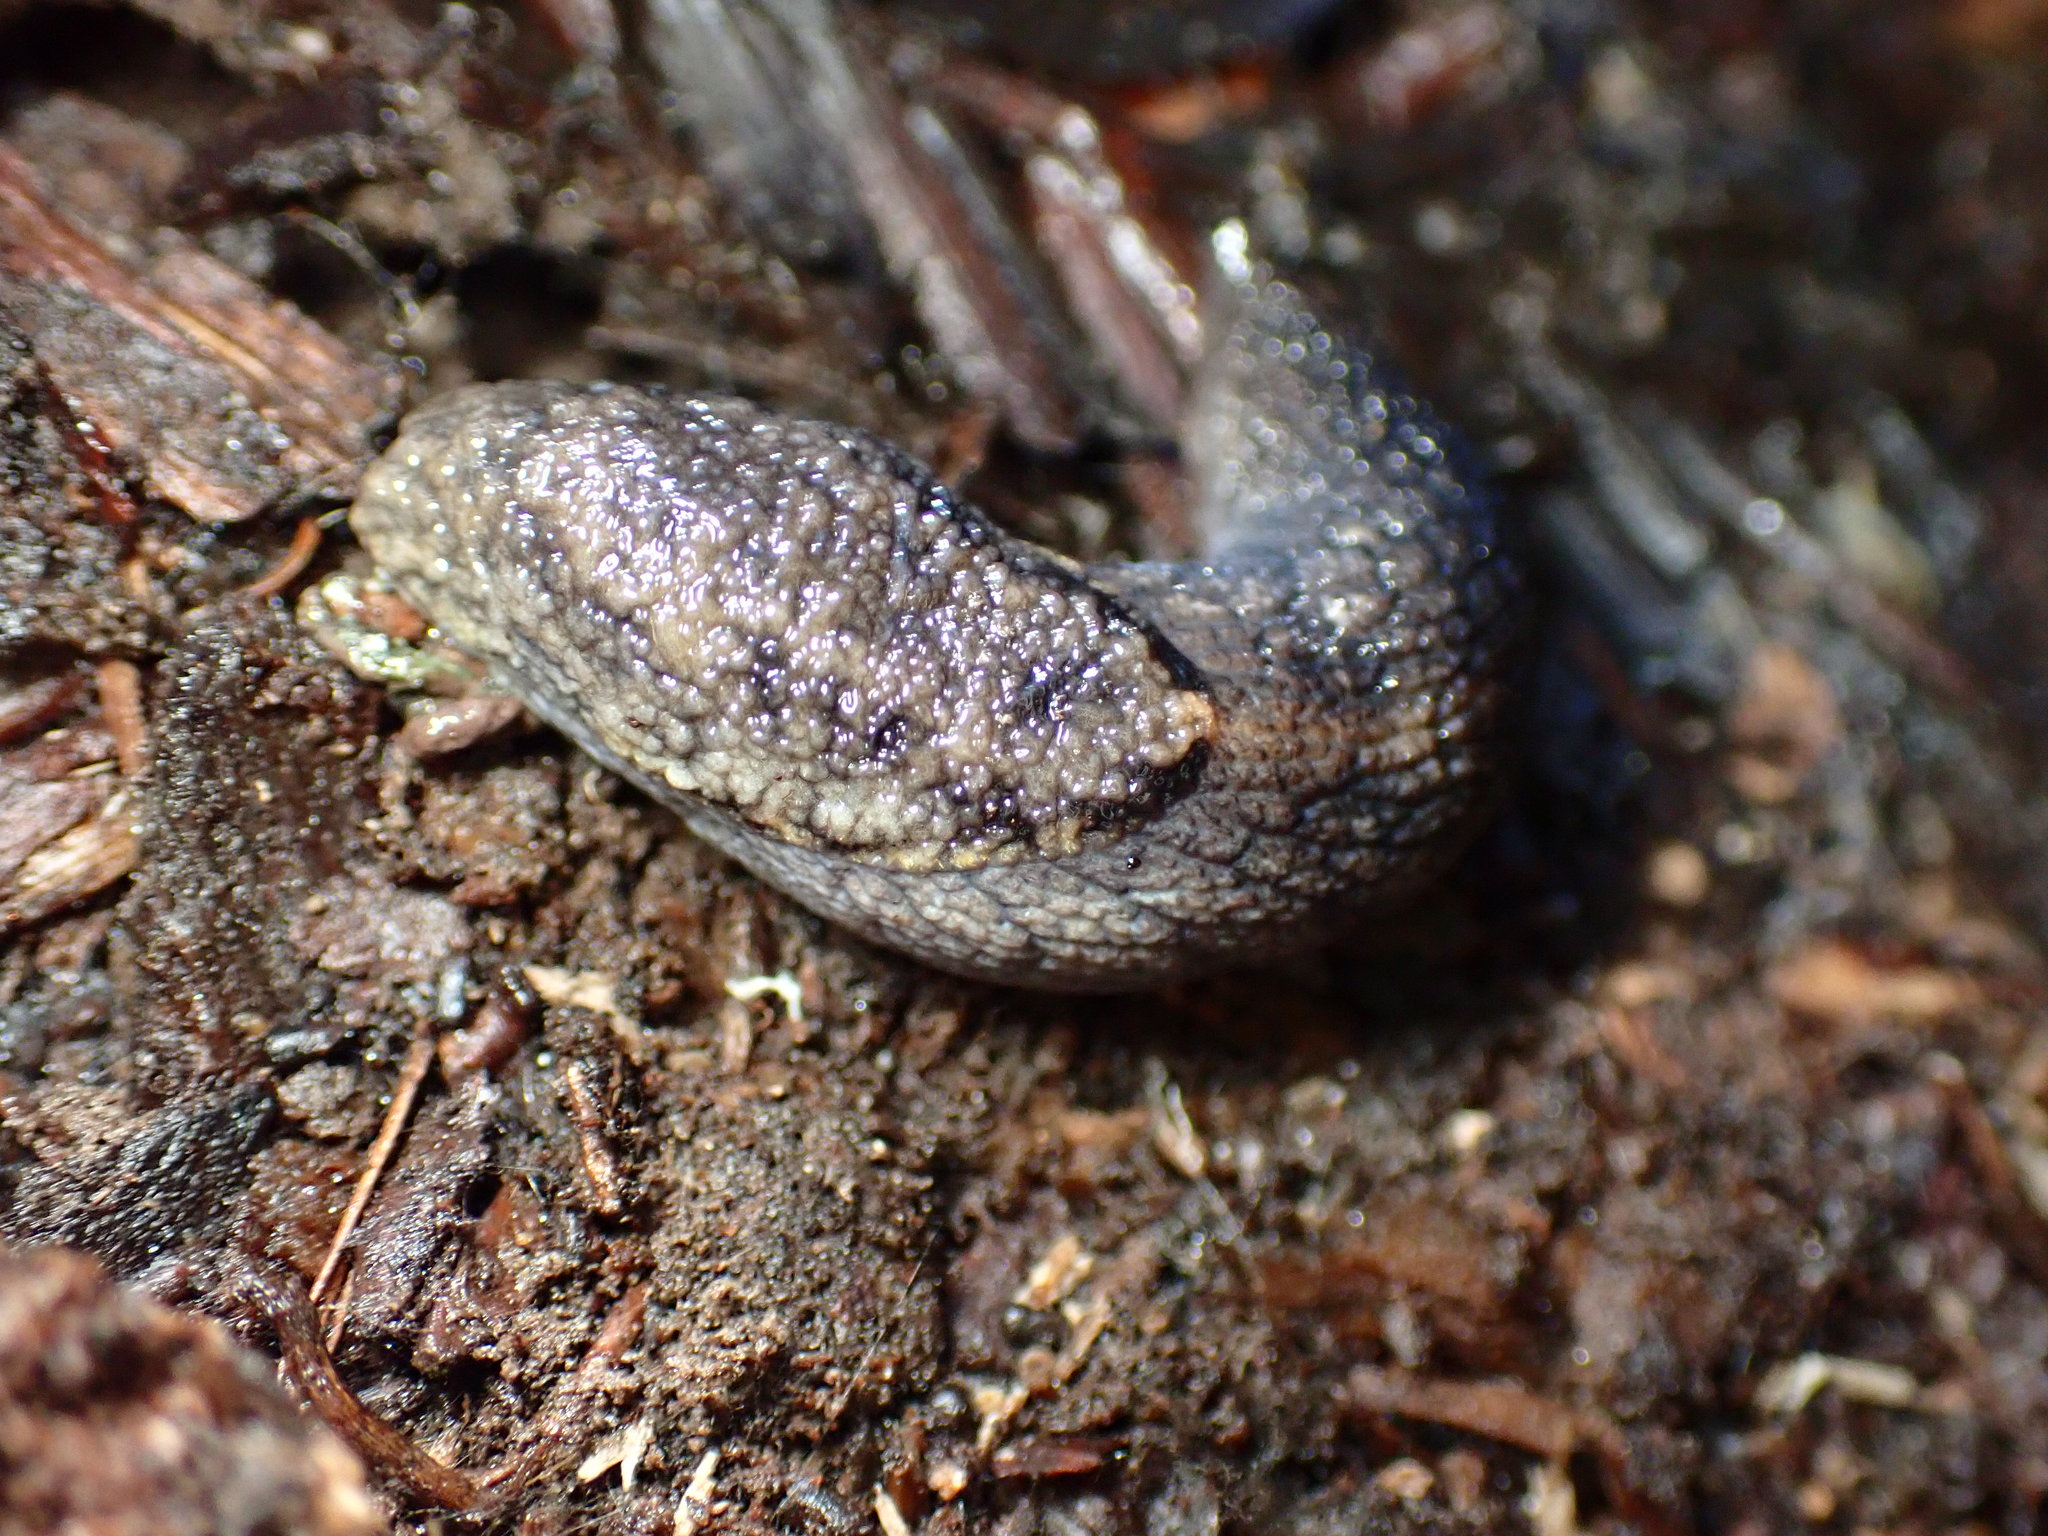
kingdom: Animalia
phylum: Mollusca
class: Gastropoda
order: Stylommatophora
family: Ariolimacidae
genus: Prophysaon
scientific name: Prophysaon andersonii
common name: Reticulate taildropper
